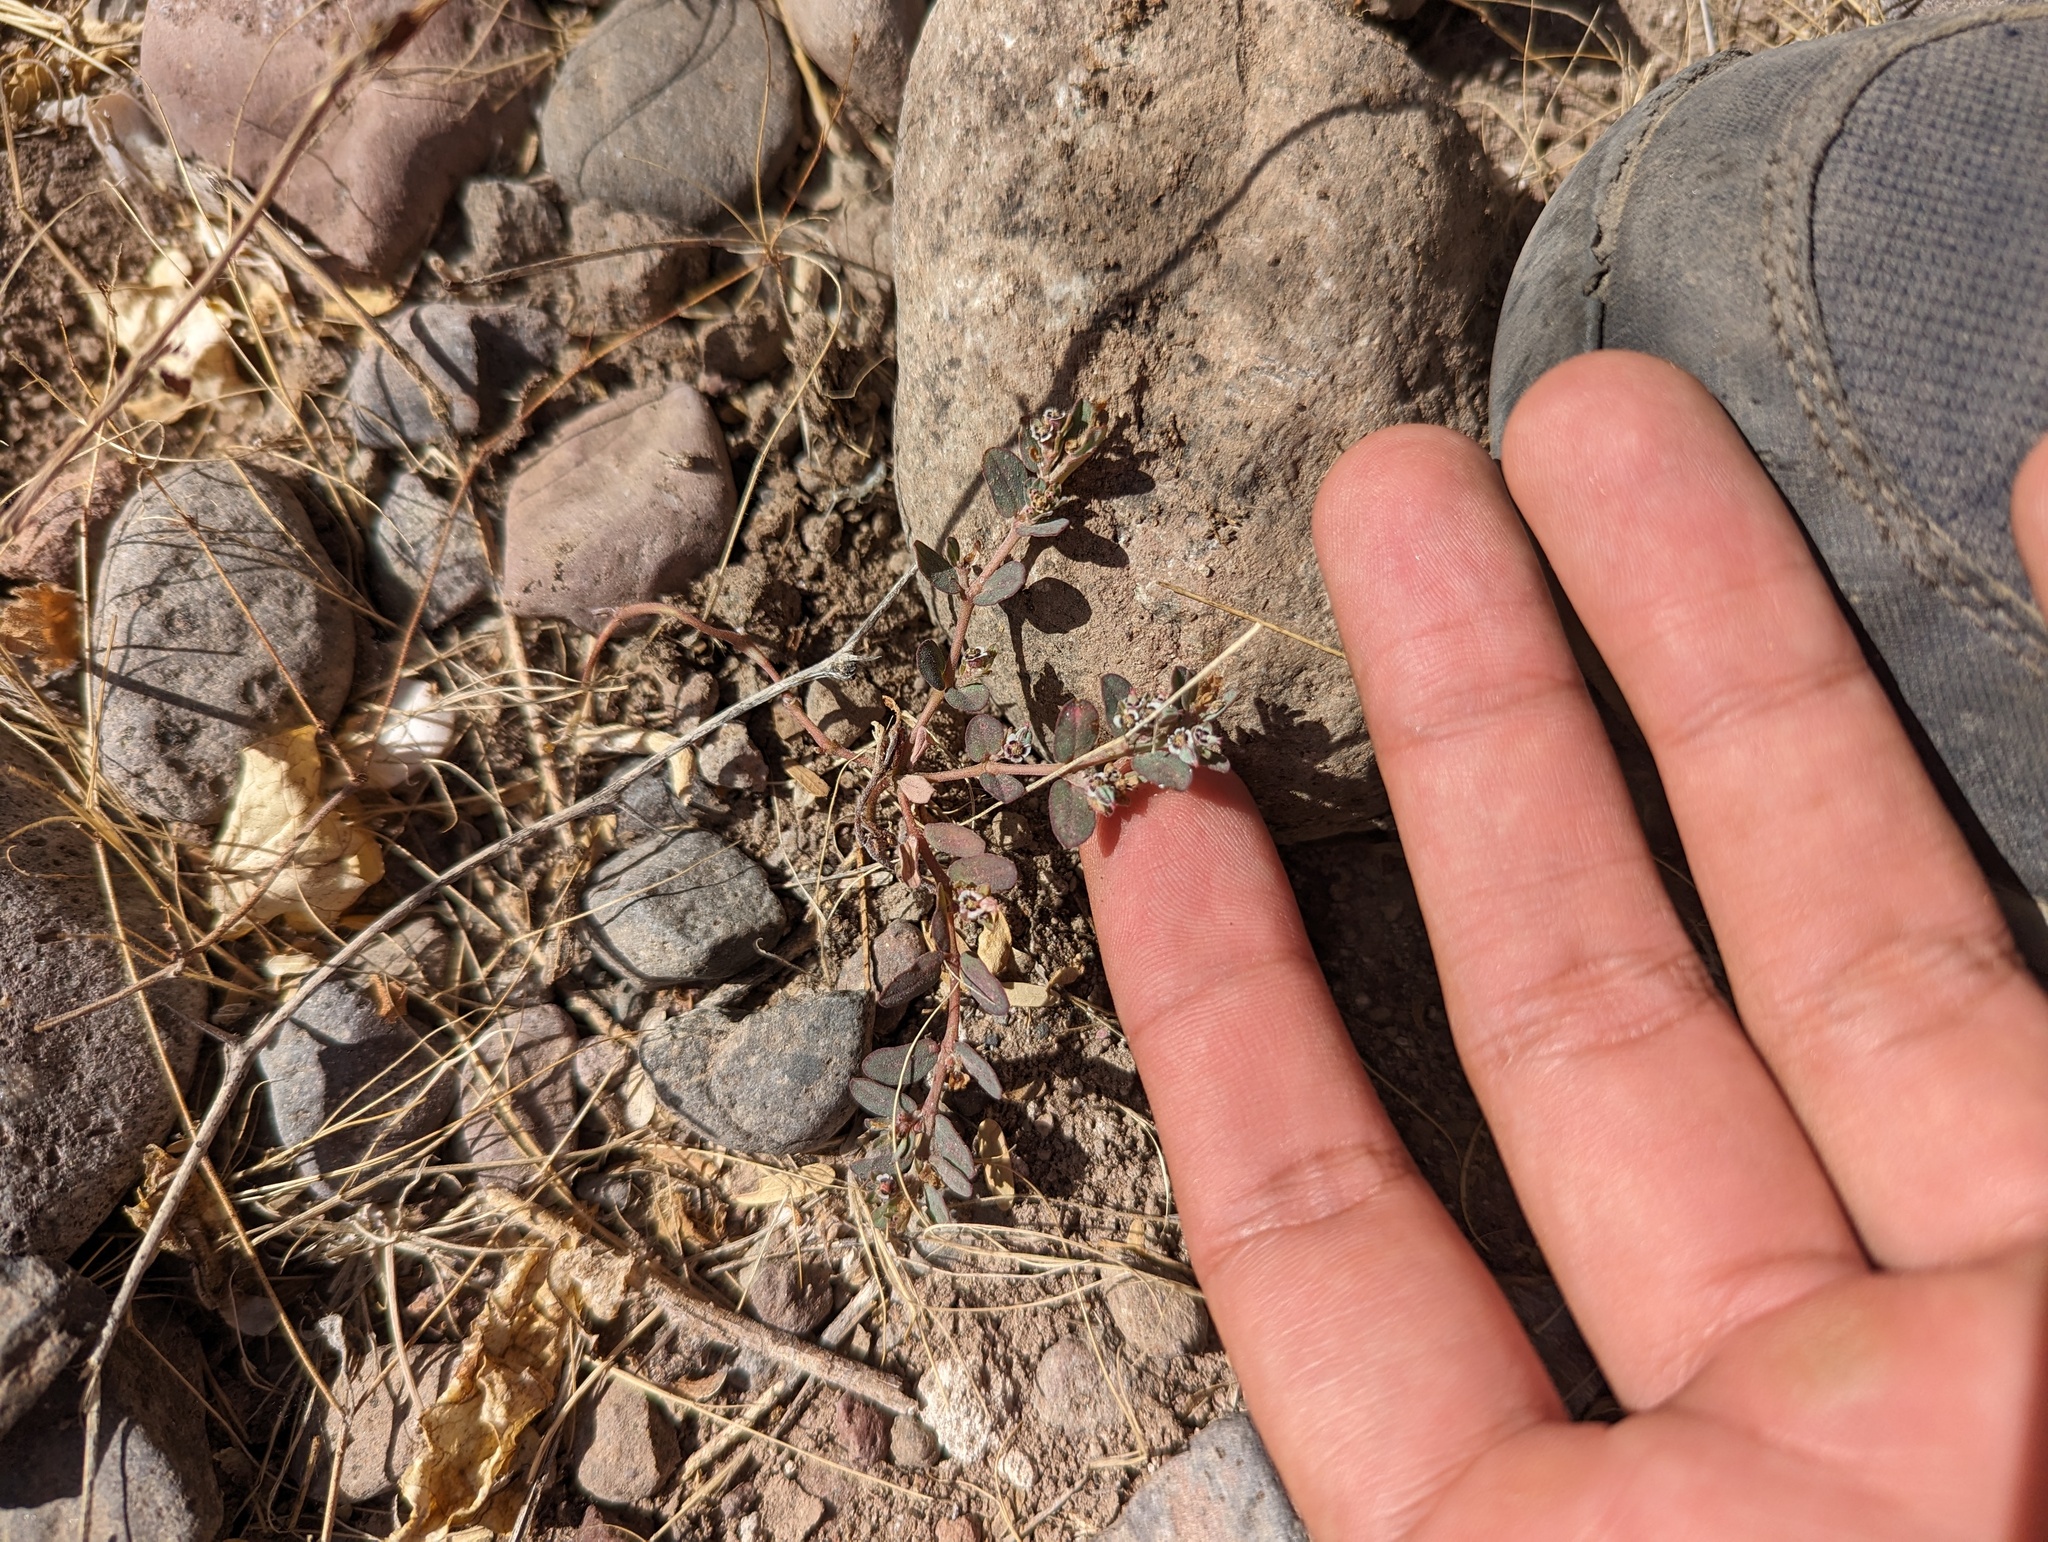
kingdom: Plantae
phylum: Tracheophyta
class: Magnoliopsida
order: Malpighiales
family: Euphorbiaceae
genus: Euphorbia
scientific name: Euphorbia pediculifera
